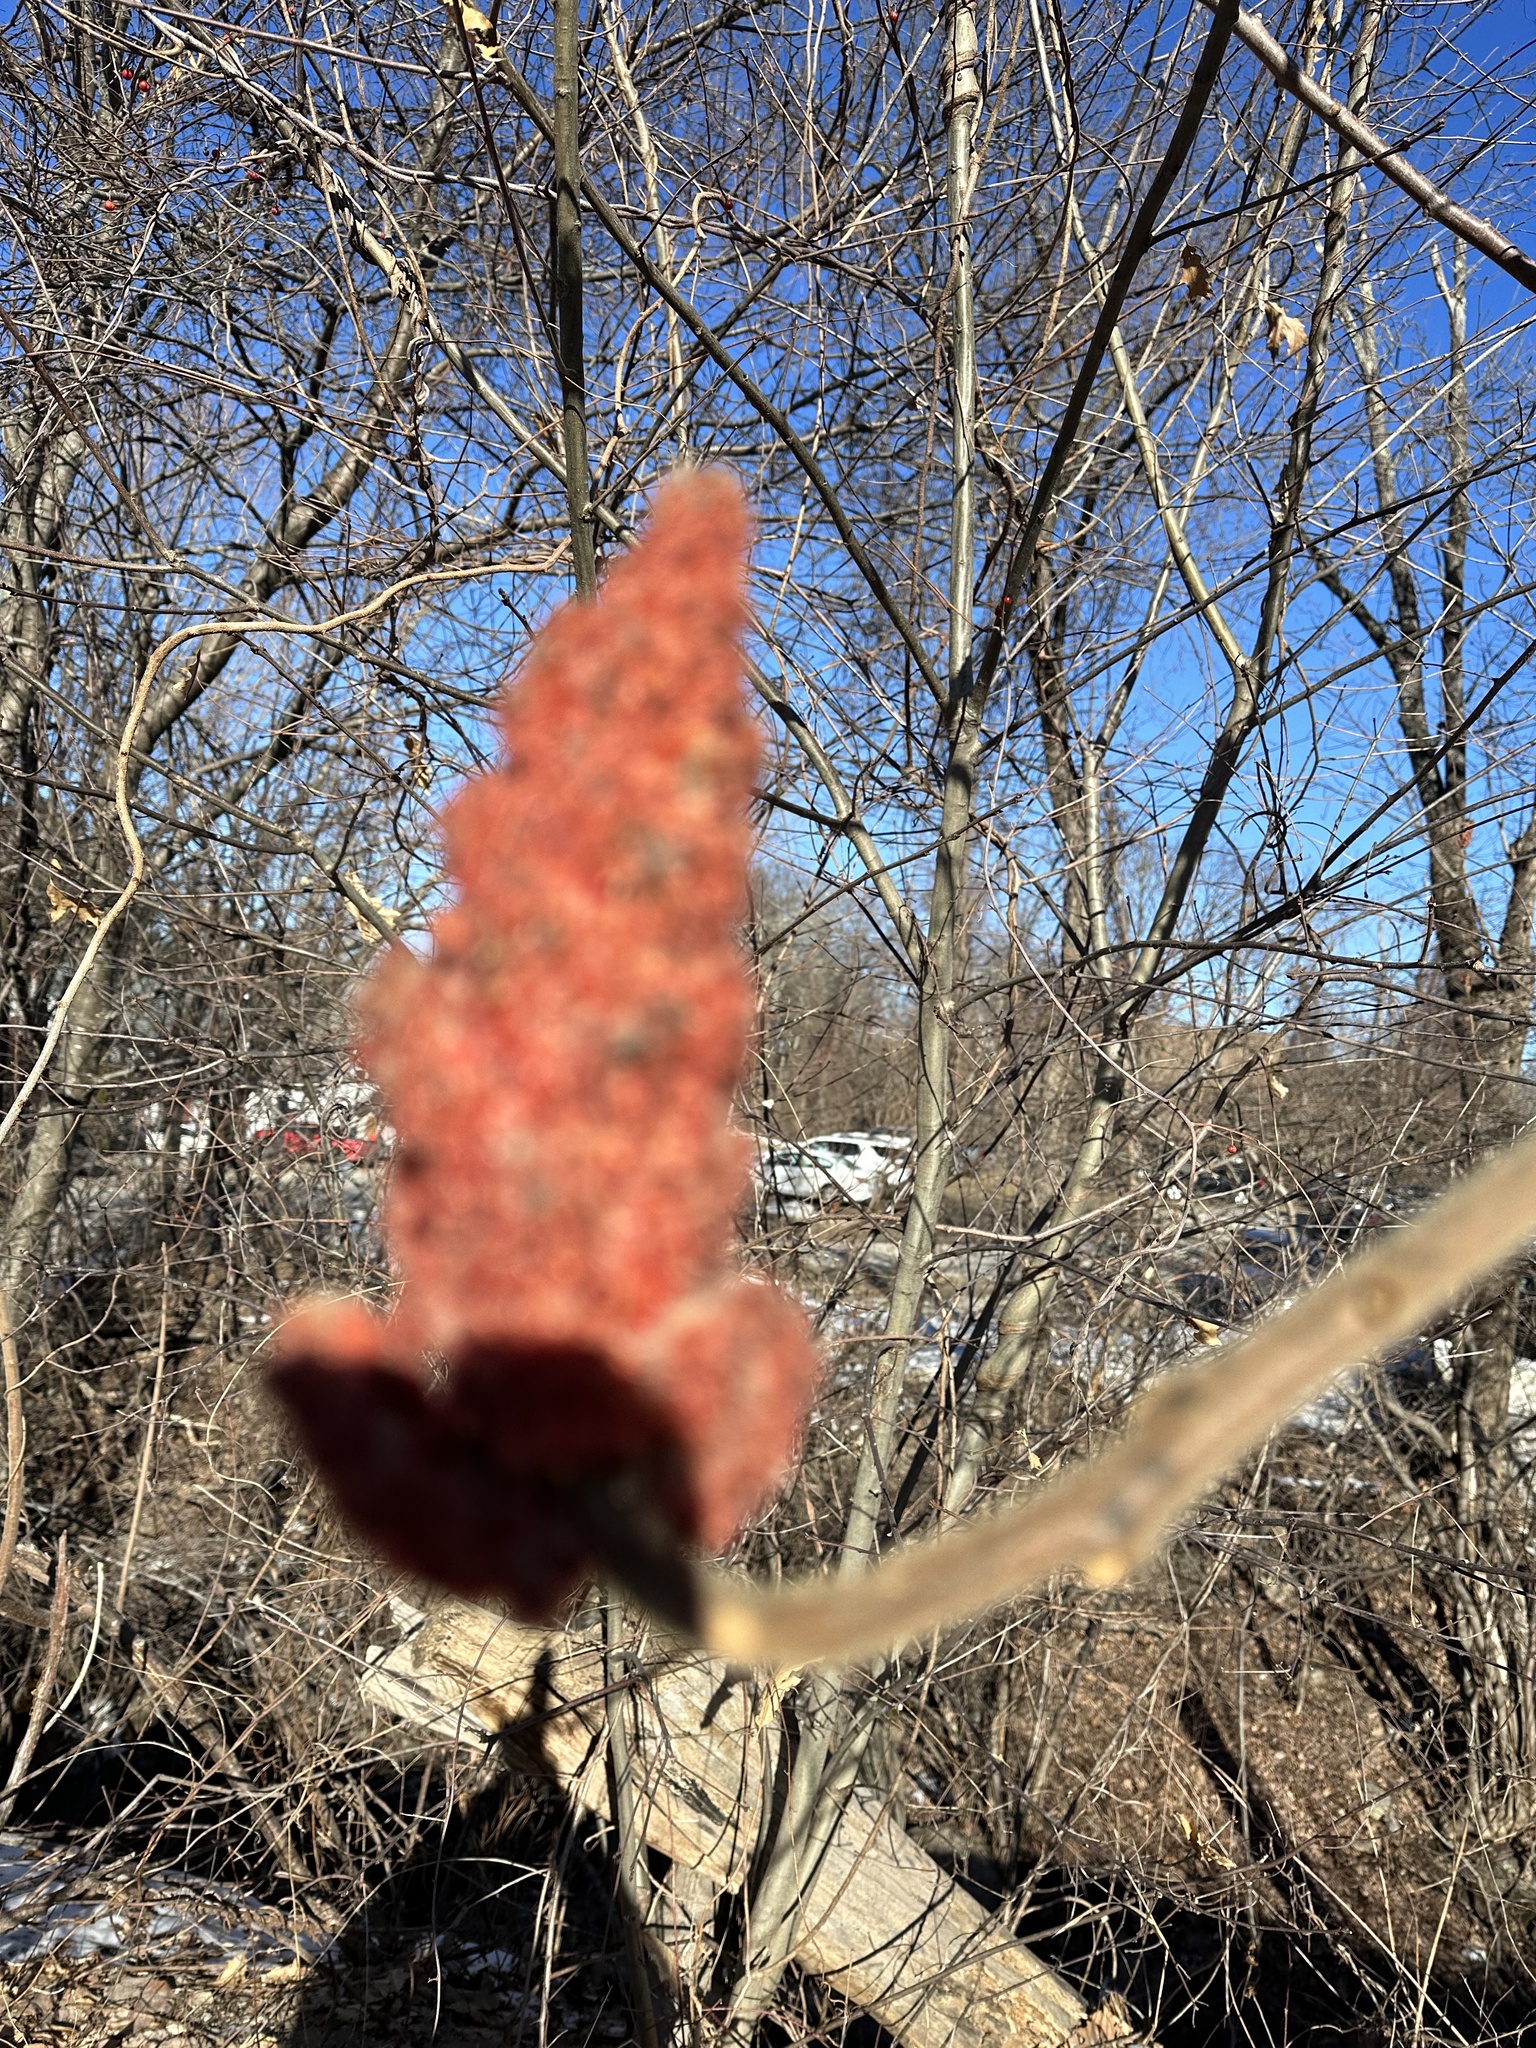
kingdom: Plantae
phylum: Tracheophyta
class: Magnoliopsida
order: Sapindales
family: Anacardiaceae
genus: Rhus
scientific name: Rhus typhina
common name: Staghorn sumac
